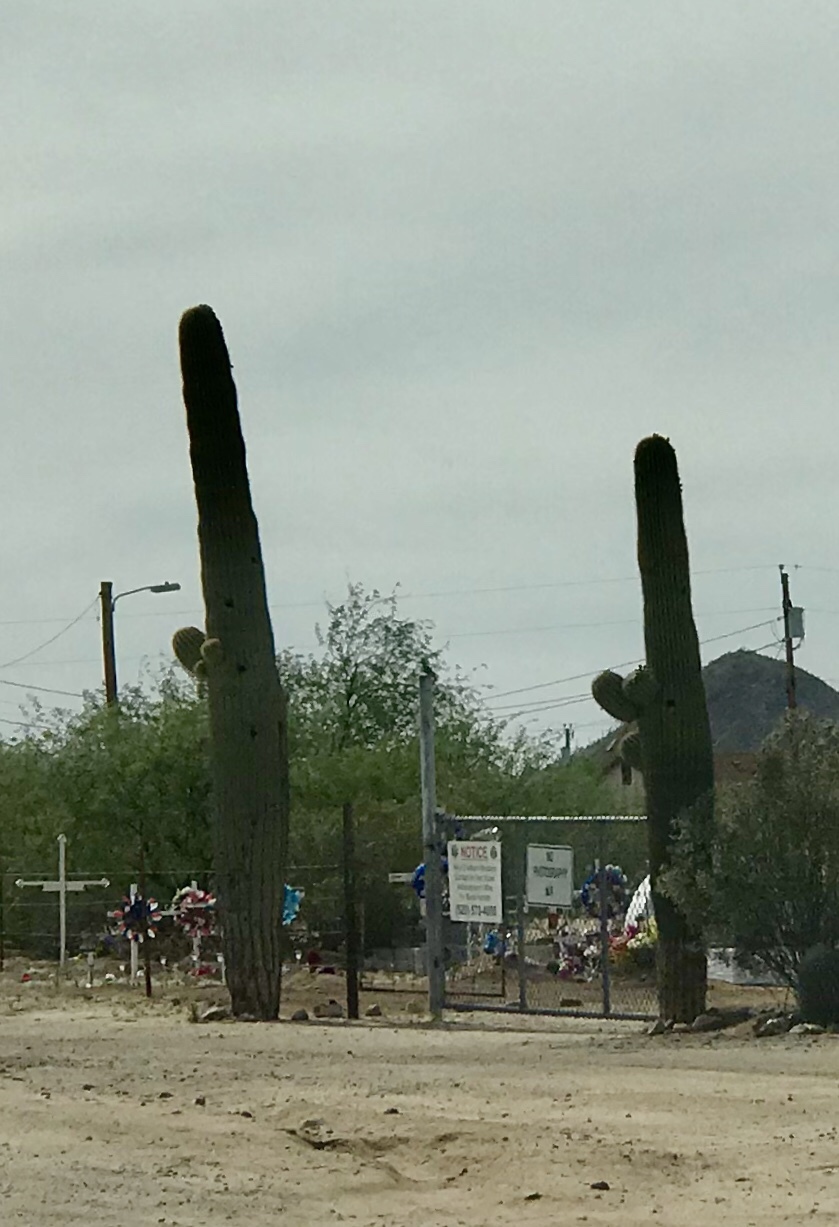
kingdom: Plantae
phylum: Tracheophyta
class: Magnoliopsida
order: Caryophyllales
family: Cactaceae
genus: Carnegiea
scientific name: Carnegiea gigantea
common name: Saguaro
